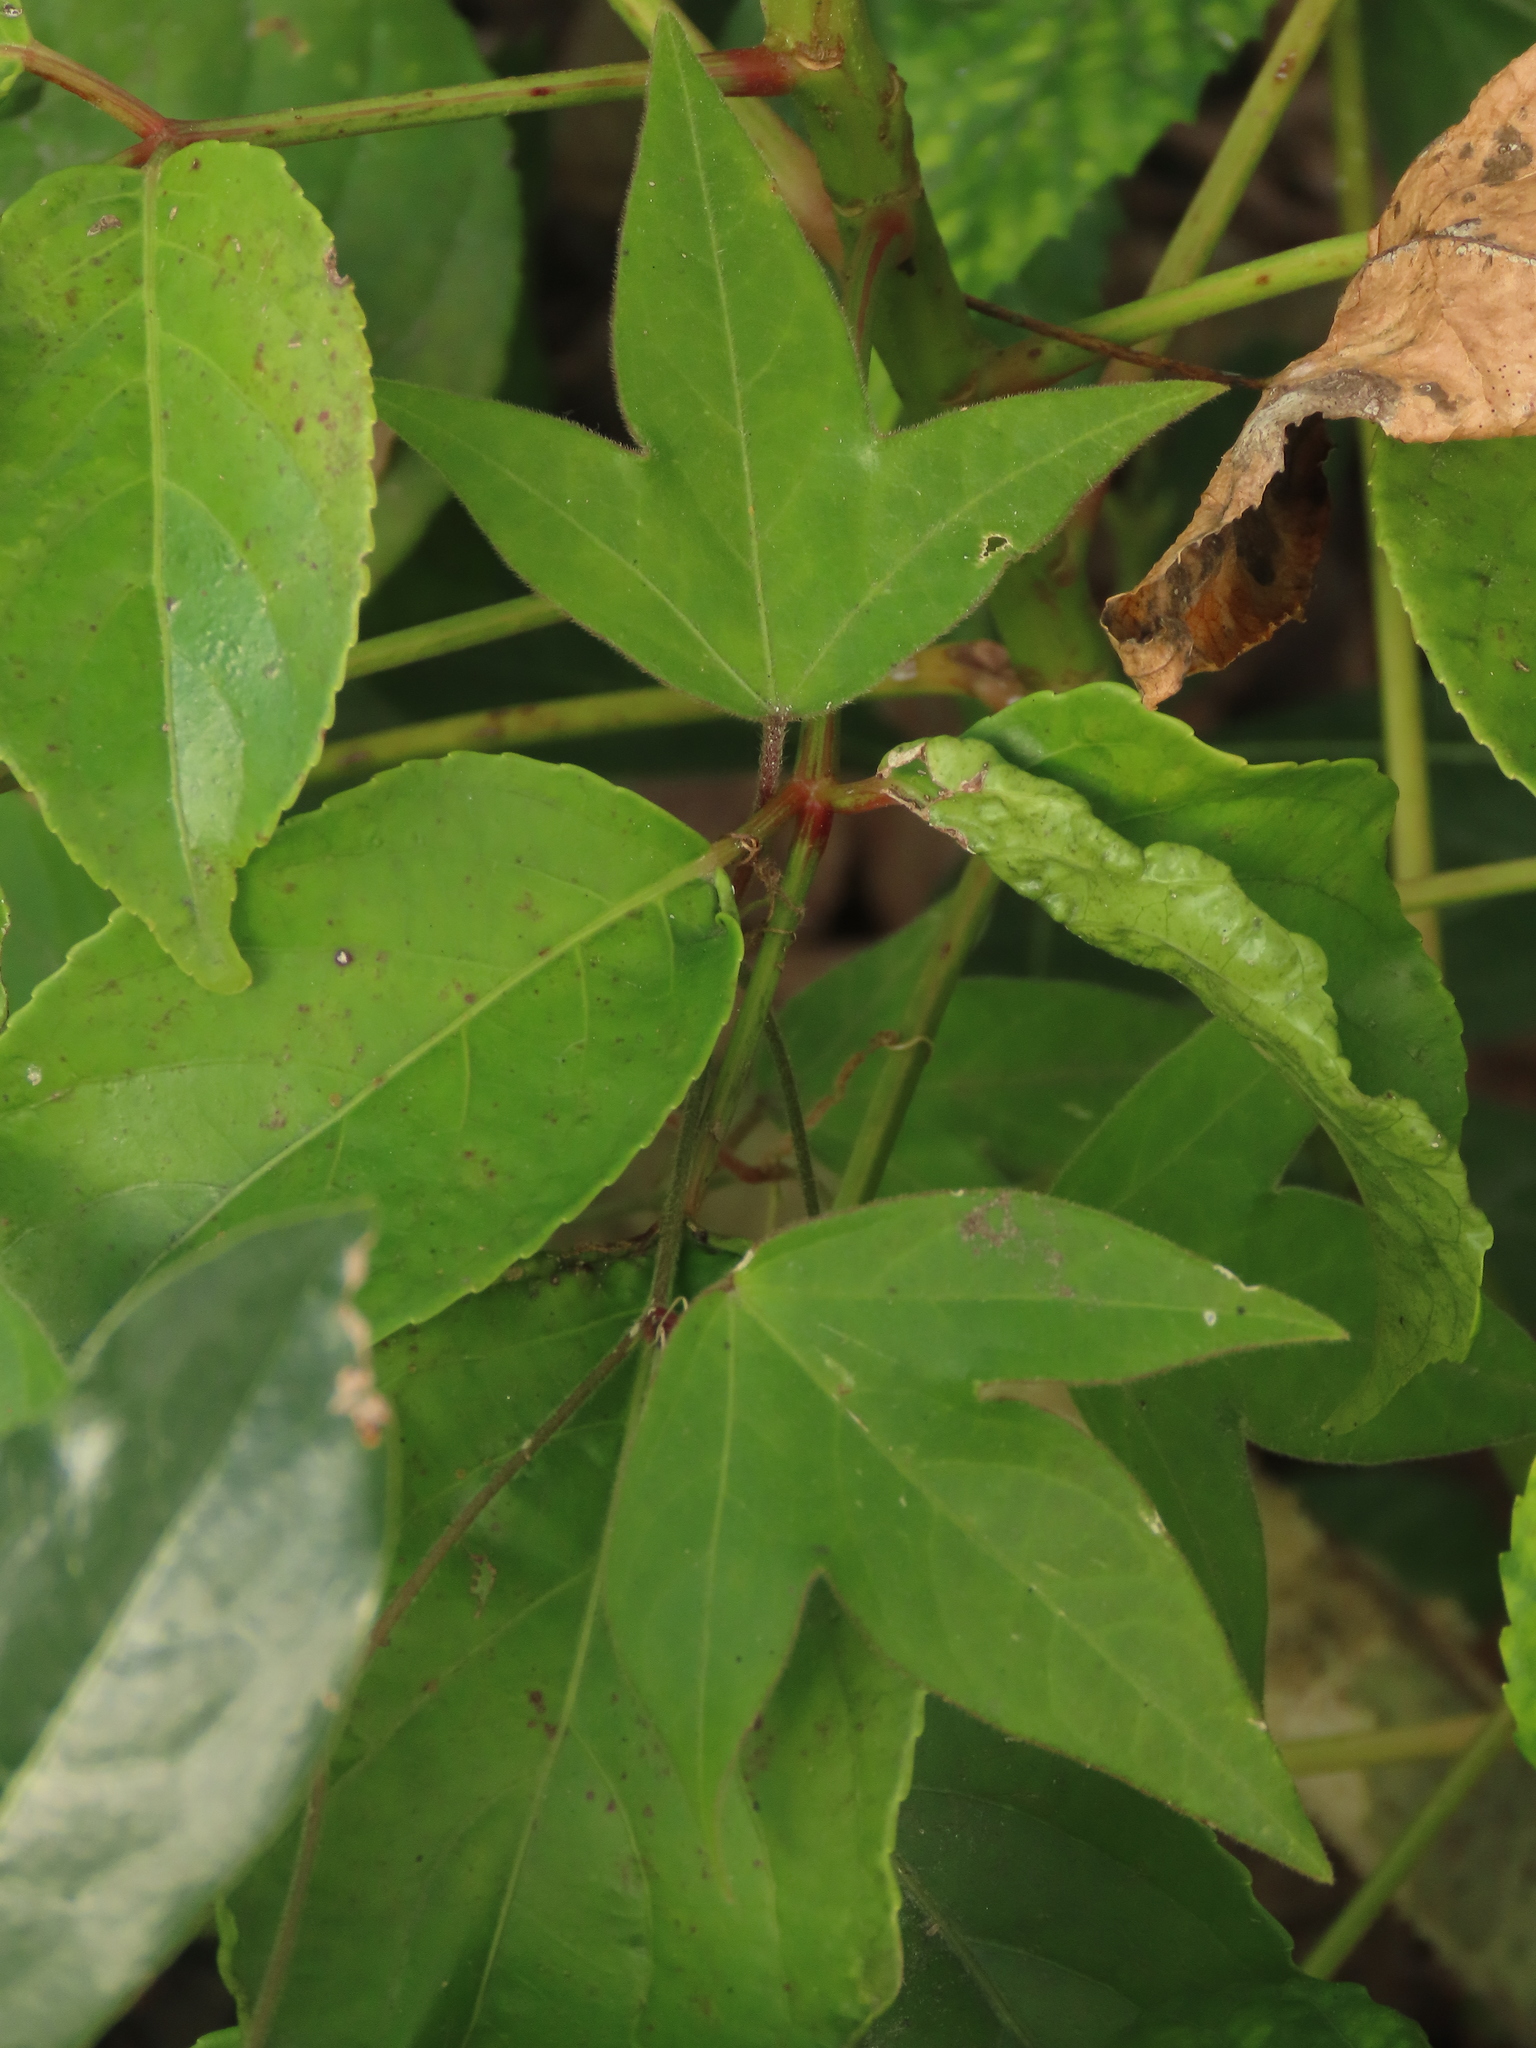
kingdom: Plantae
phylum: Tracheophyta
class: Magnoliopsida
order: Malpighiales
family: Passifloraceae
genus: Passiflora
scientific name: Passiflora suberosa
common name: Wild passionfruit
